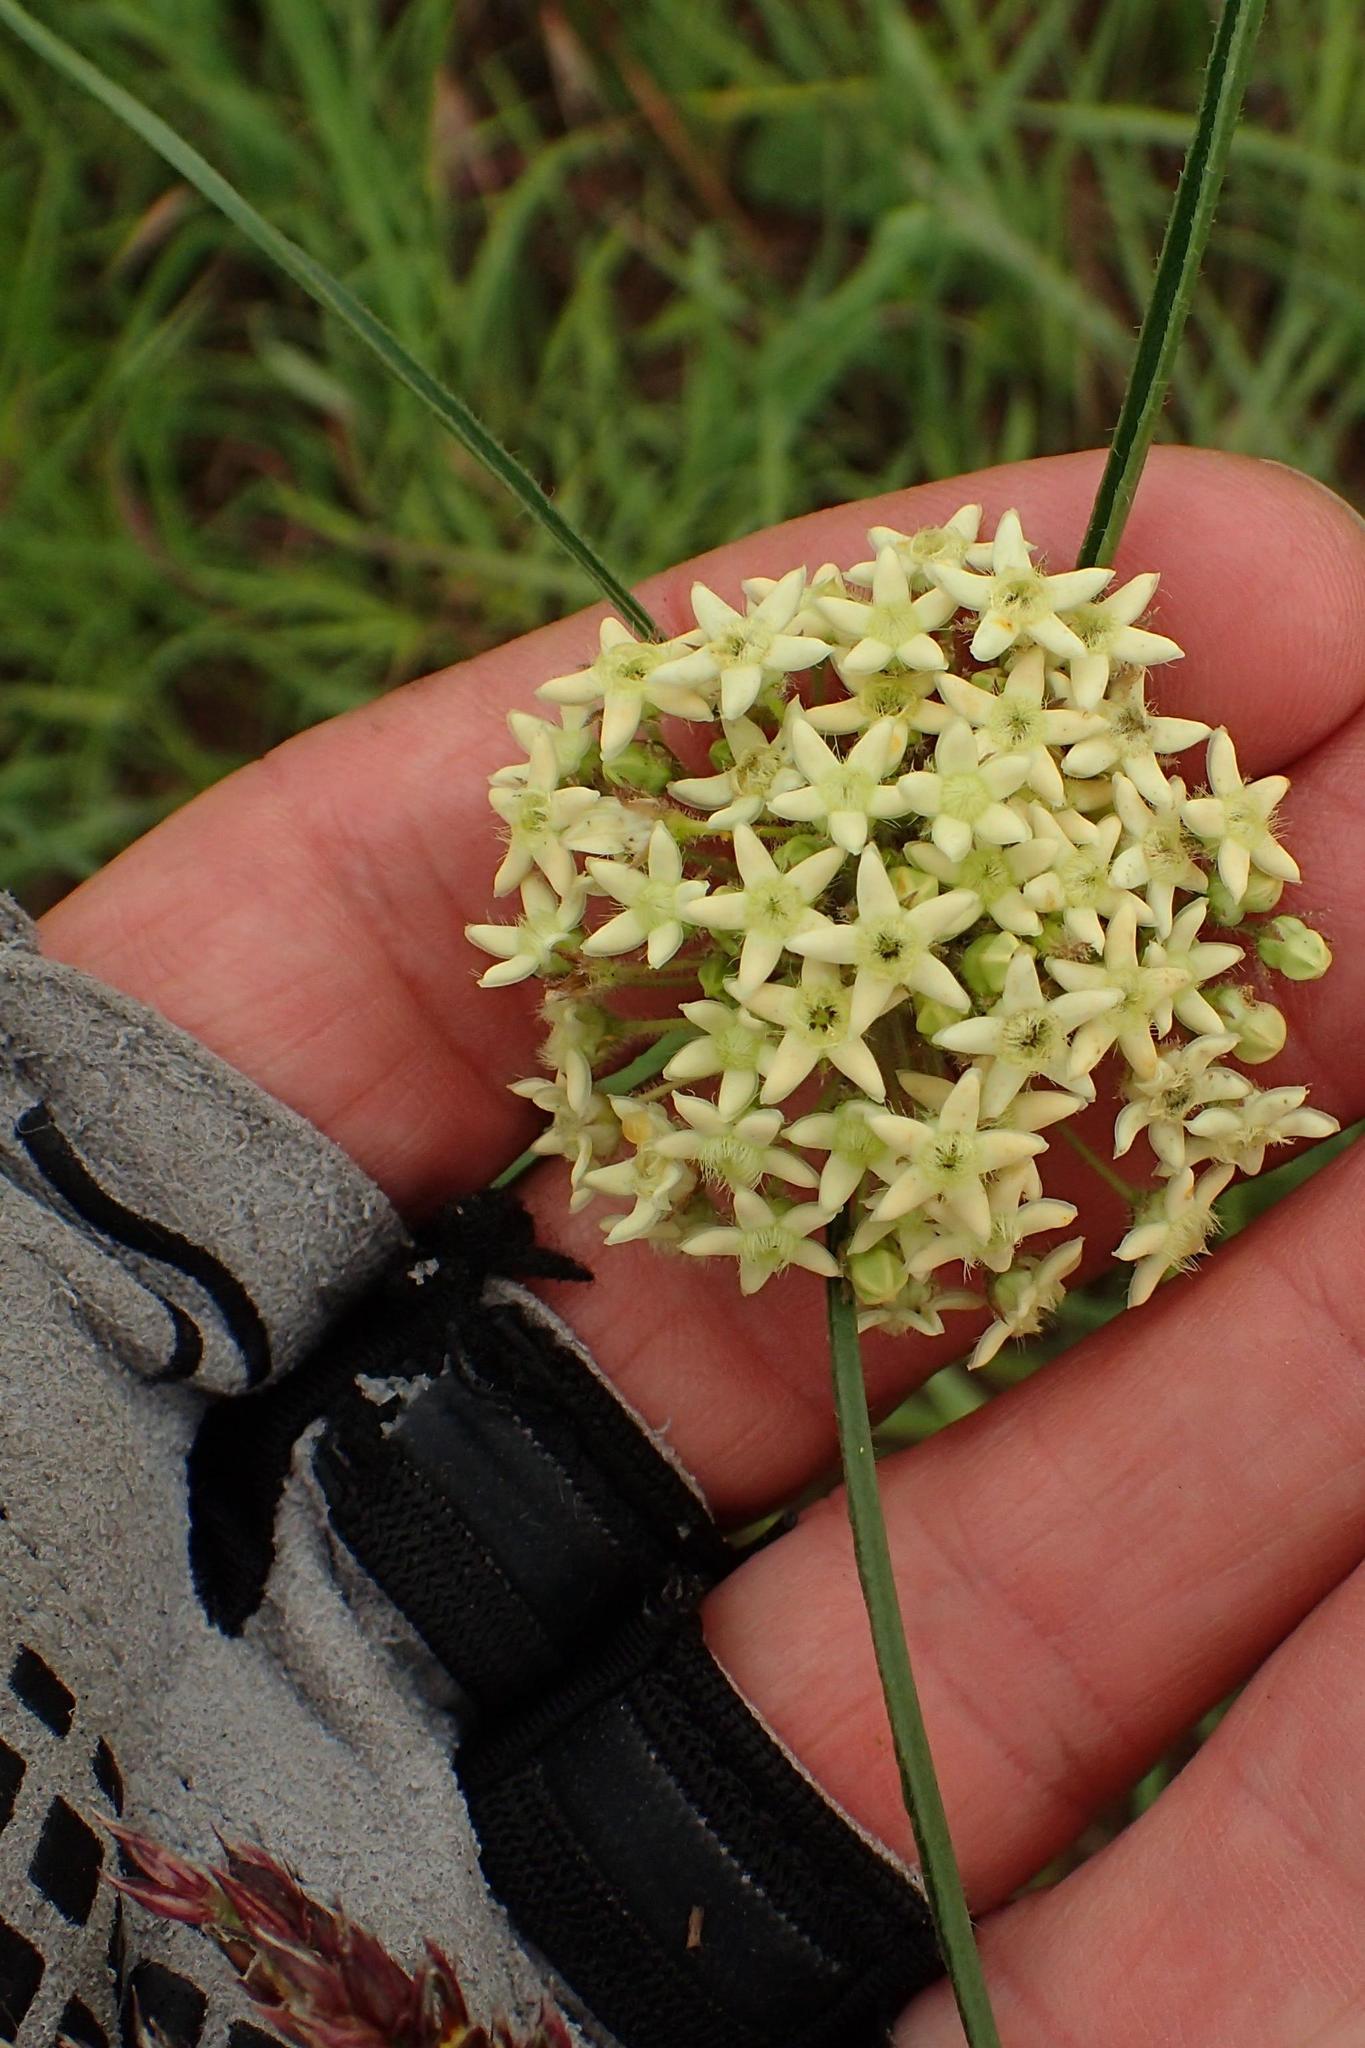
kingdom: Plantae
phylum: Tracheophyta
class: Magnoliopsida
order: Gentianales
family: Apocynaceae
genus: Sisyranthus
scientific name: Sisyranthus trichostomus
